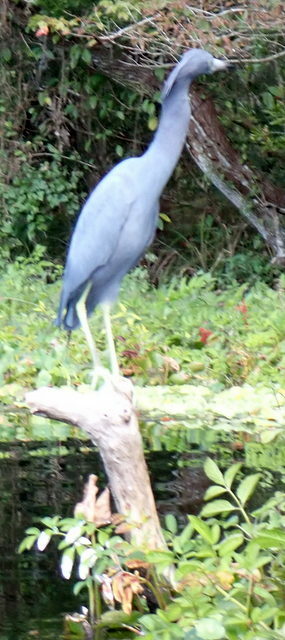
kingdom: Animalia
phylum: Chordata
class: Aves
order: Pelecaniformes
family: Ardeidae
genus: Egretta
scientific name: Egretta caerulea
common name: Little blue heron
